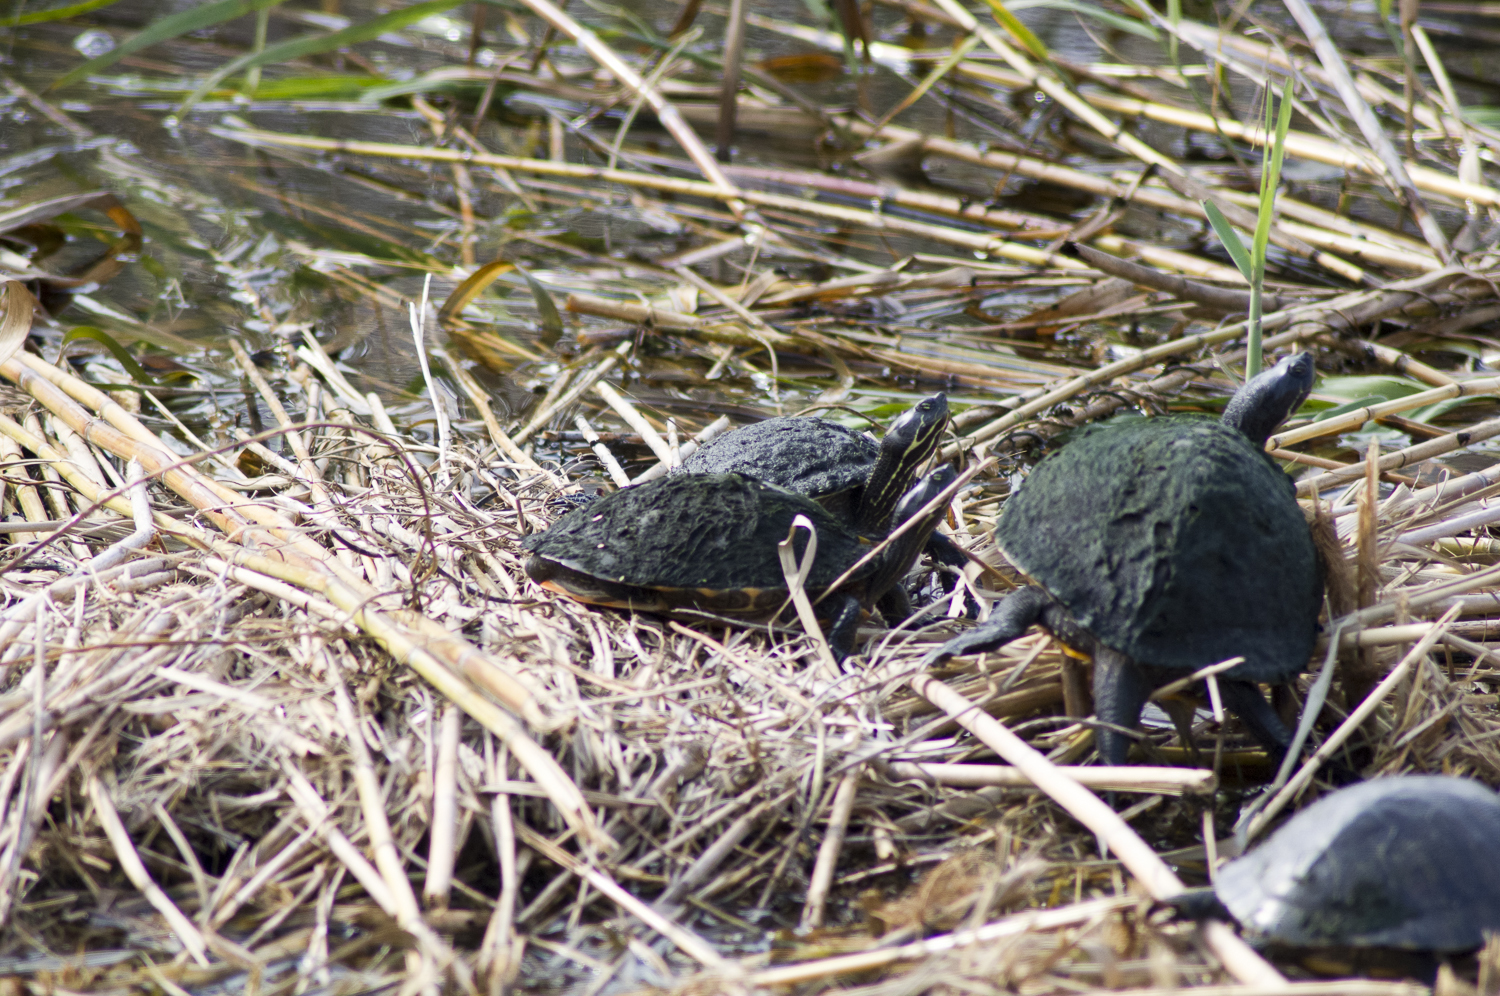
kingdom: Animalia
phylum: Chordata
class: Testudines
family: Emydidae
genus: Pseudemys
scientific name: Pseudemys concinna
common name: Eastern river cooter
